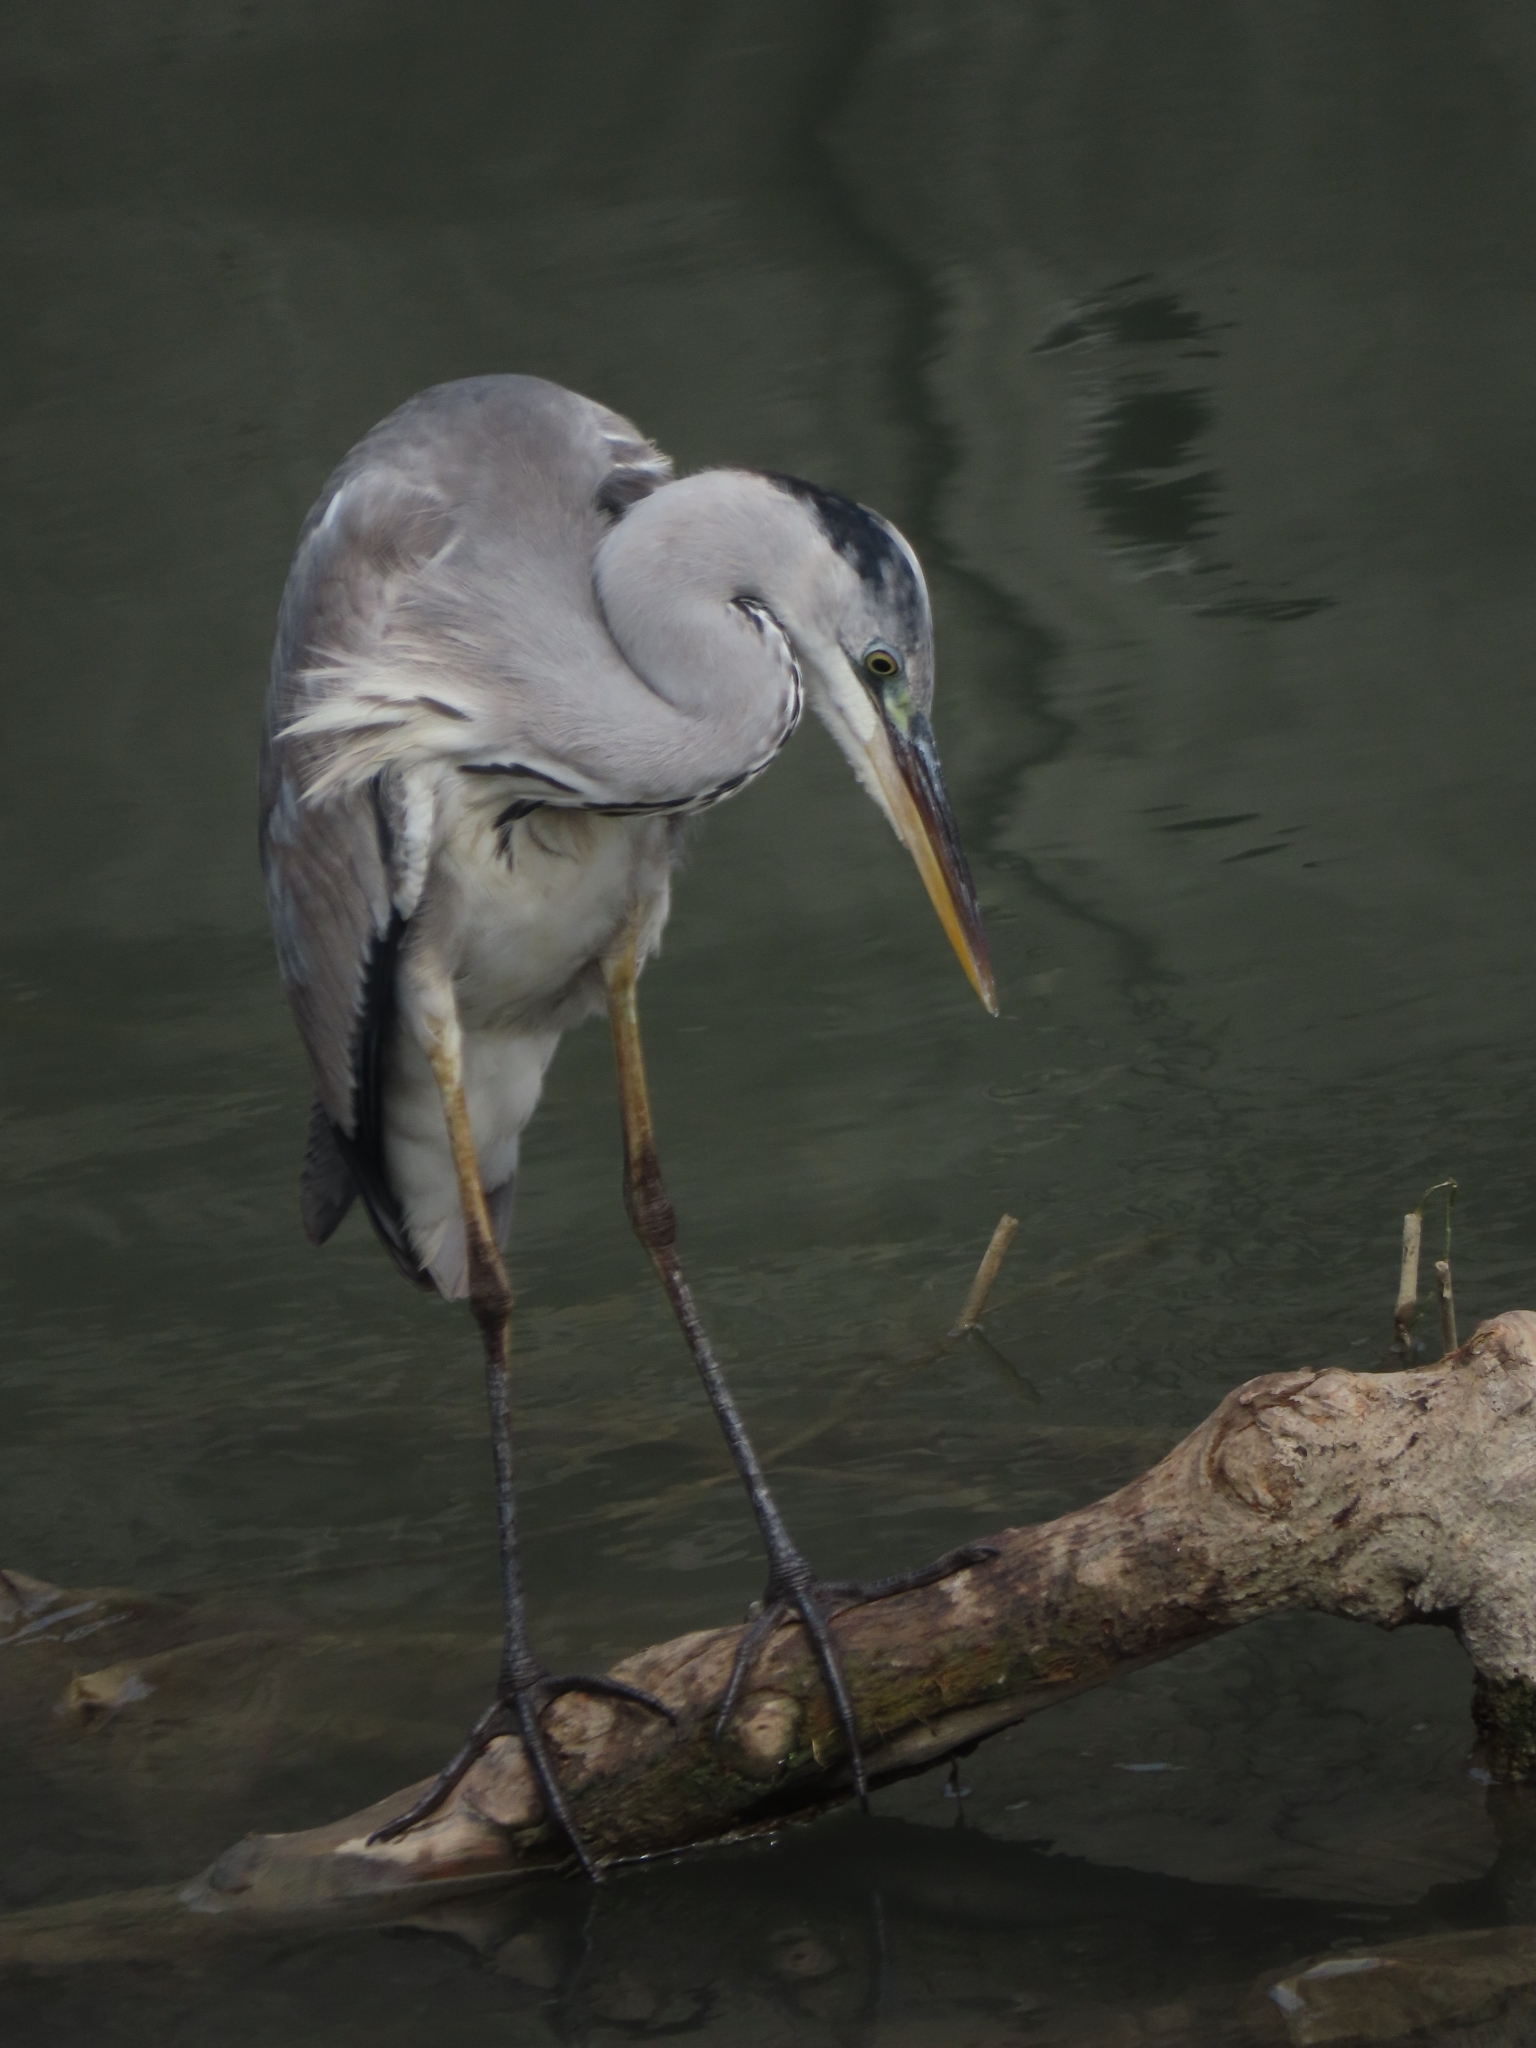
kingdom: Animalia
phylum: Chordata
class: Aves
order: Pelecaniformes
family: Ardeidae
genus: Ardea
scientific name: Ardea cinerea
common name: Grey heron
